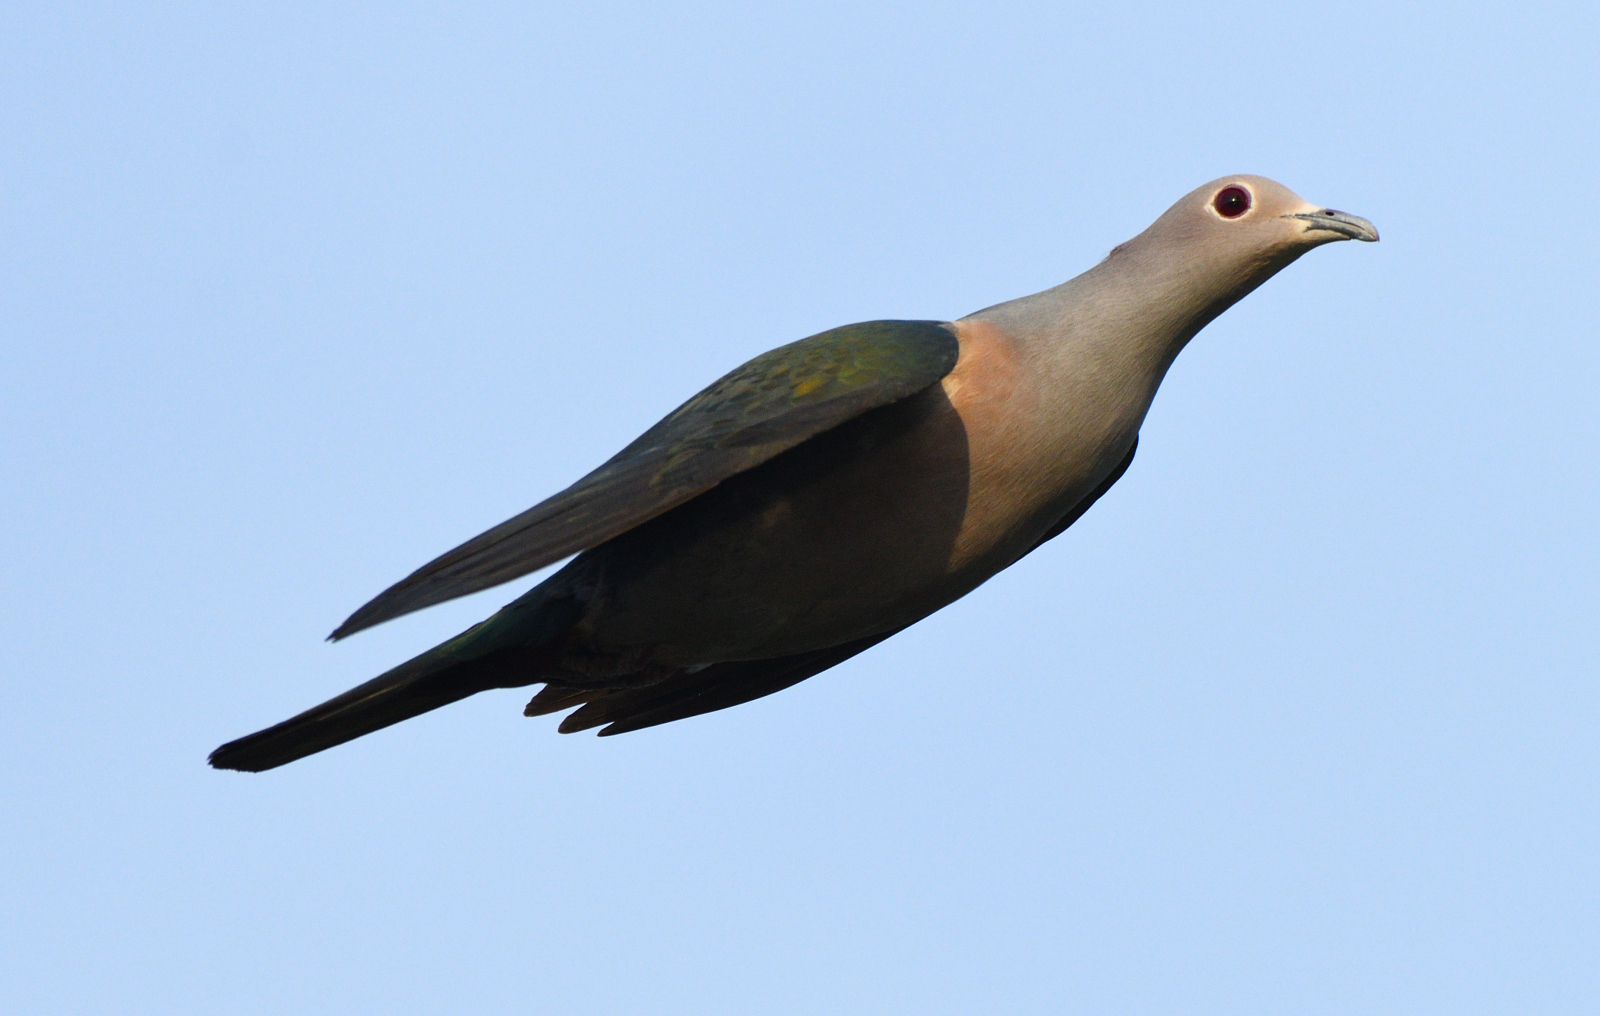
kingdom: Animalia
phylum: Chordata
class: Aves
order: Columbiformes
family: Columbidae
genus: Ducula
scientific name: Ducula aenea
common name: Green imperial pigeon
